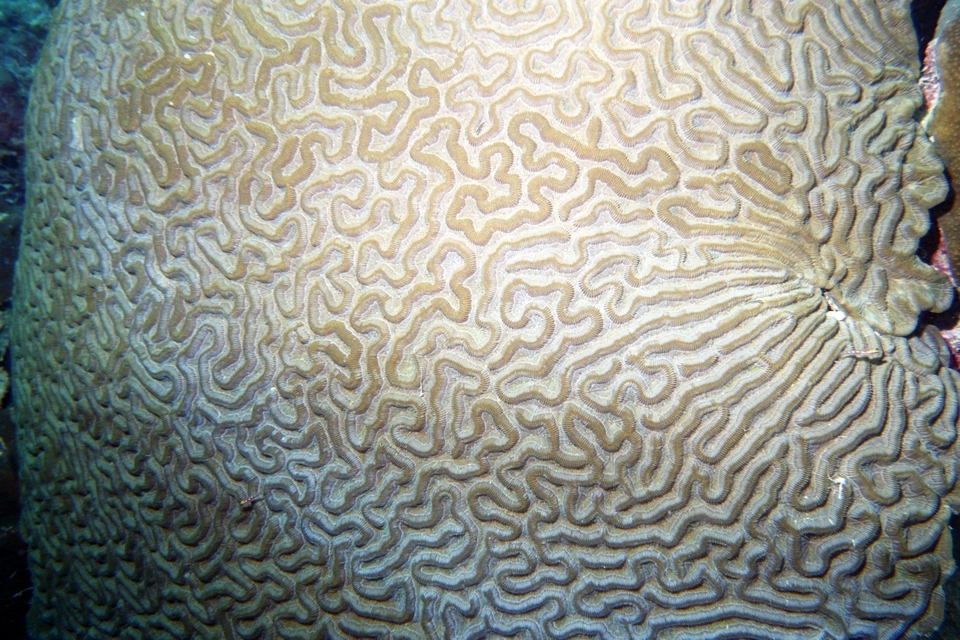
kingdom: Animalia
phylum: Cnidaria
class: Anthozoa
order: Scleractinia
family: Faviidae
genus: Colpophyllia
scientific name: Colpophyllia natans
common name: Boulder brain coral
